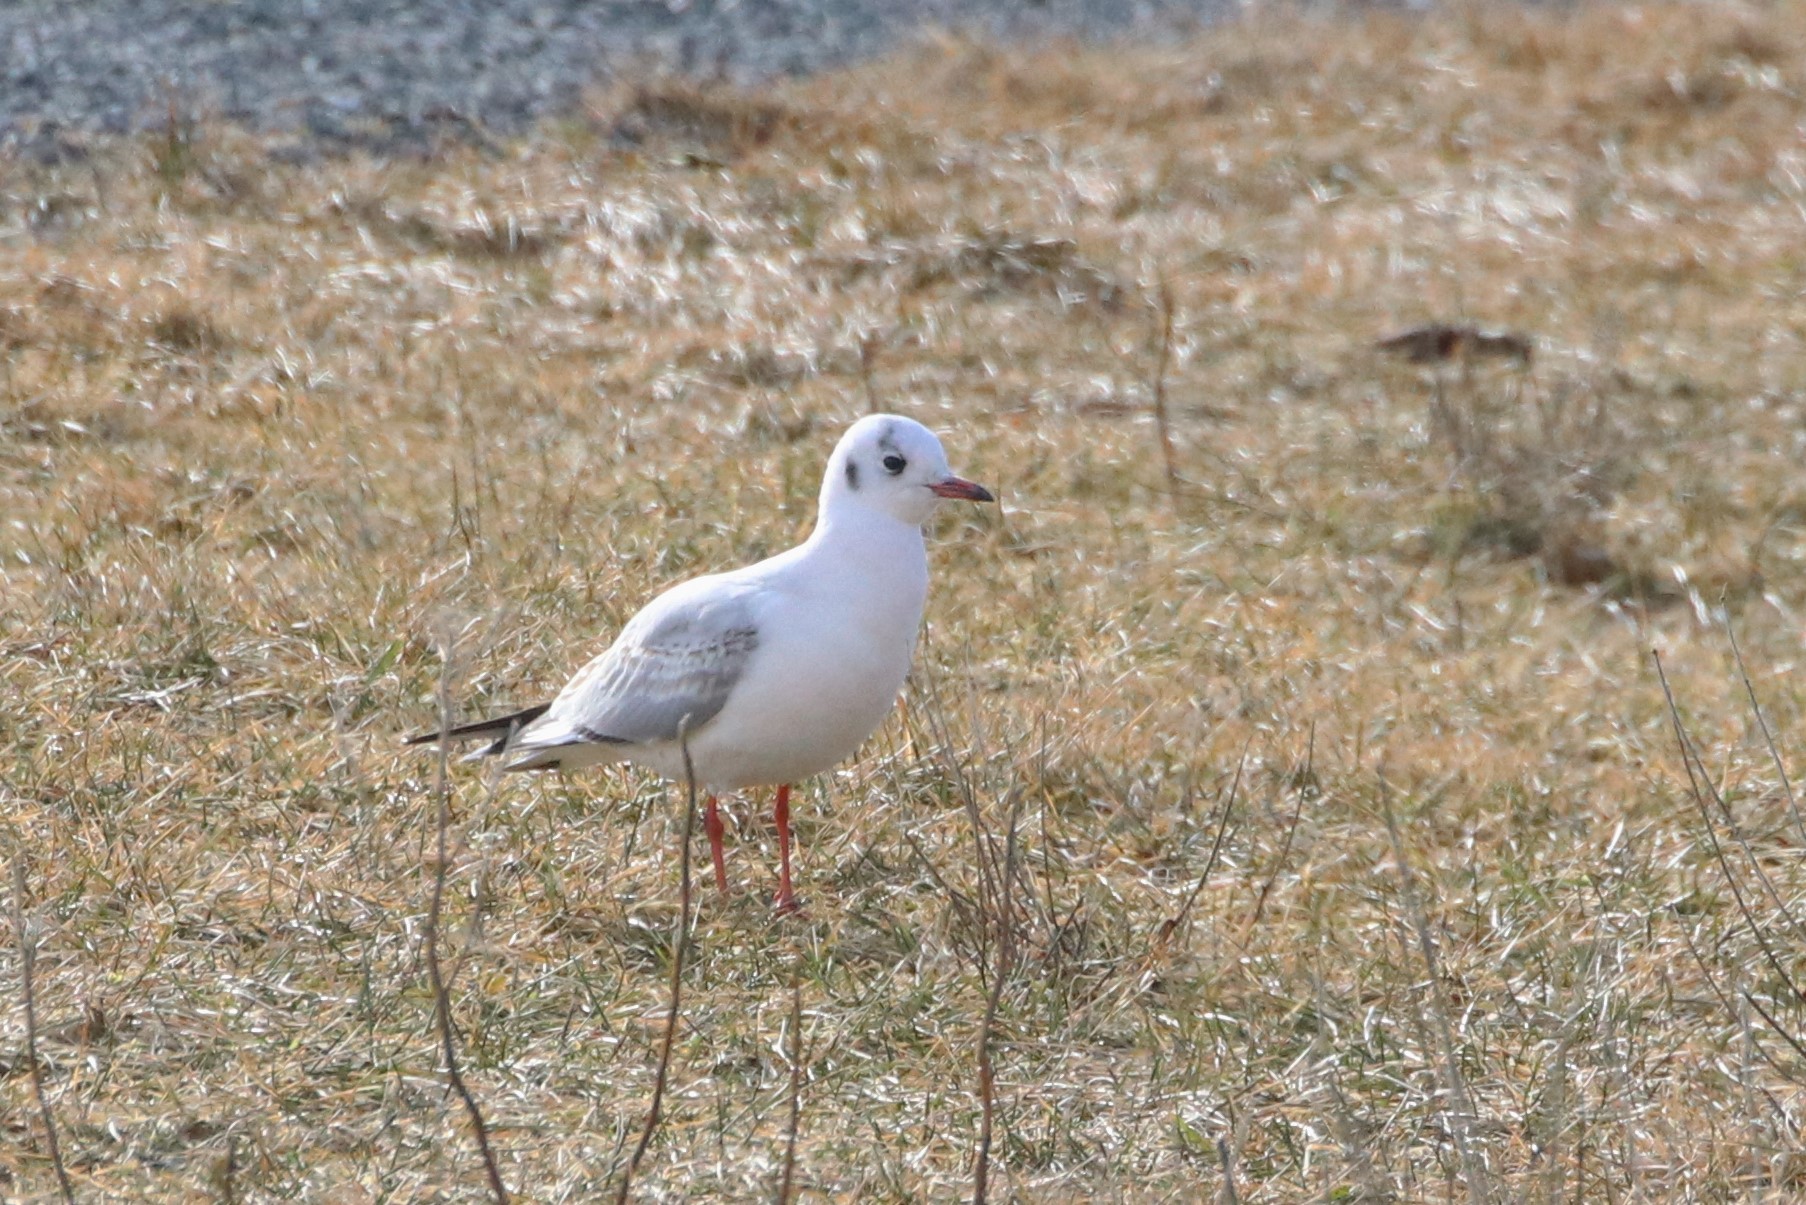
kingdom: Animalia
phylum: Chordata
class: Aves
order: Charadriiformes
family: Laridae
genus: Chroicocephalus
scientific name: Chroicocephalus ridibundus
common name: Black-headed gull
